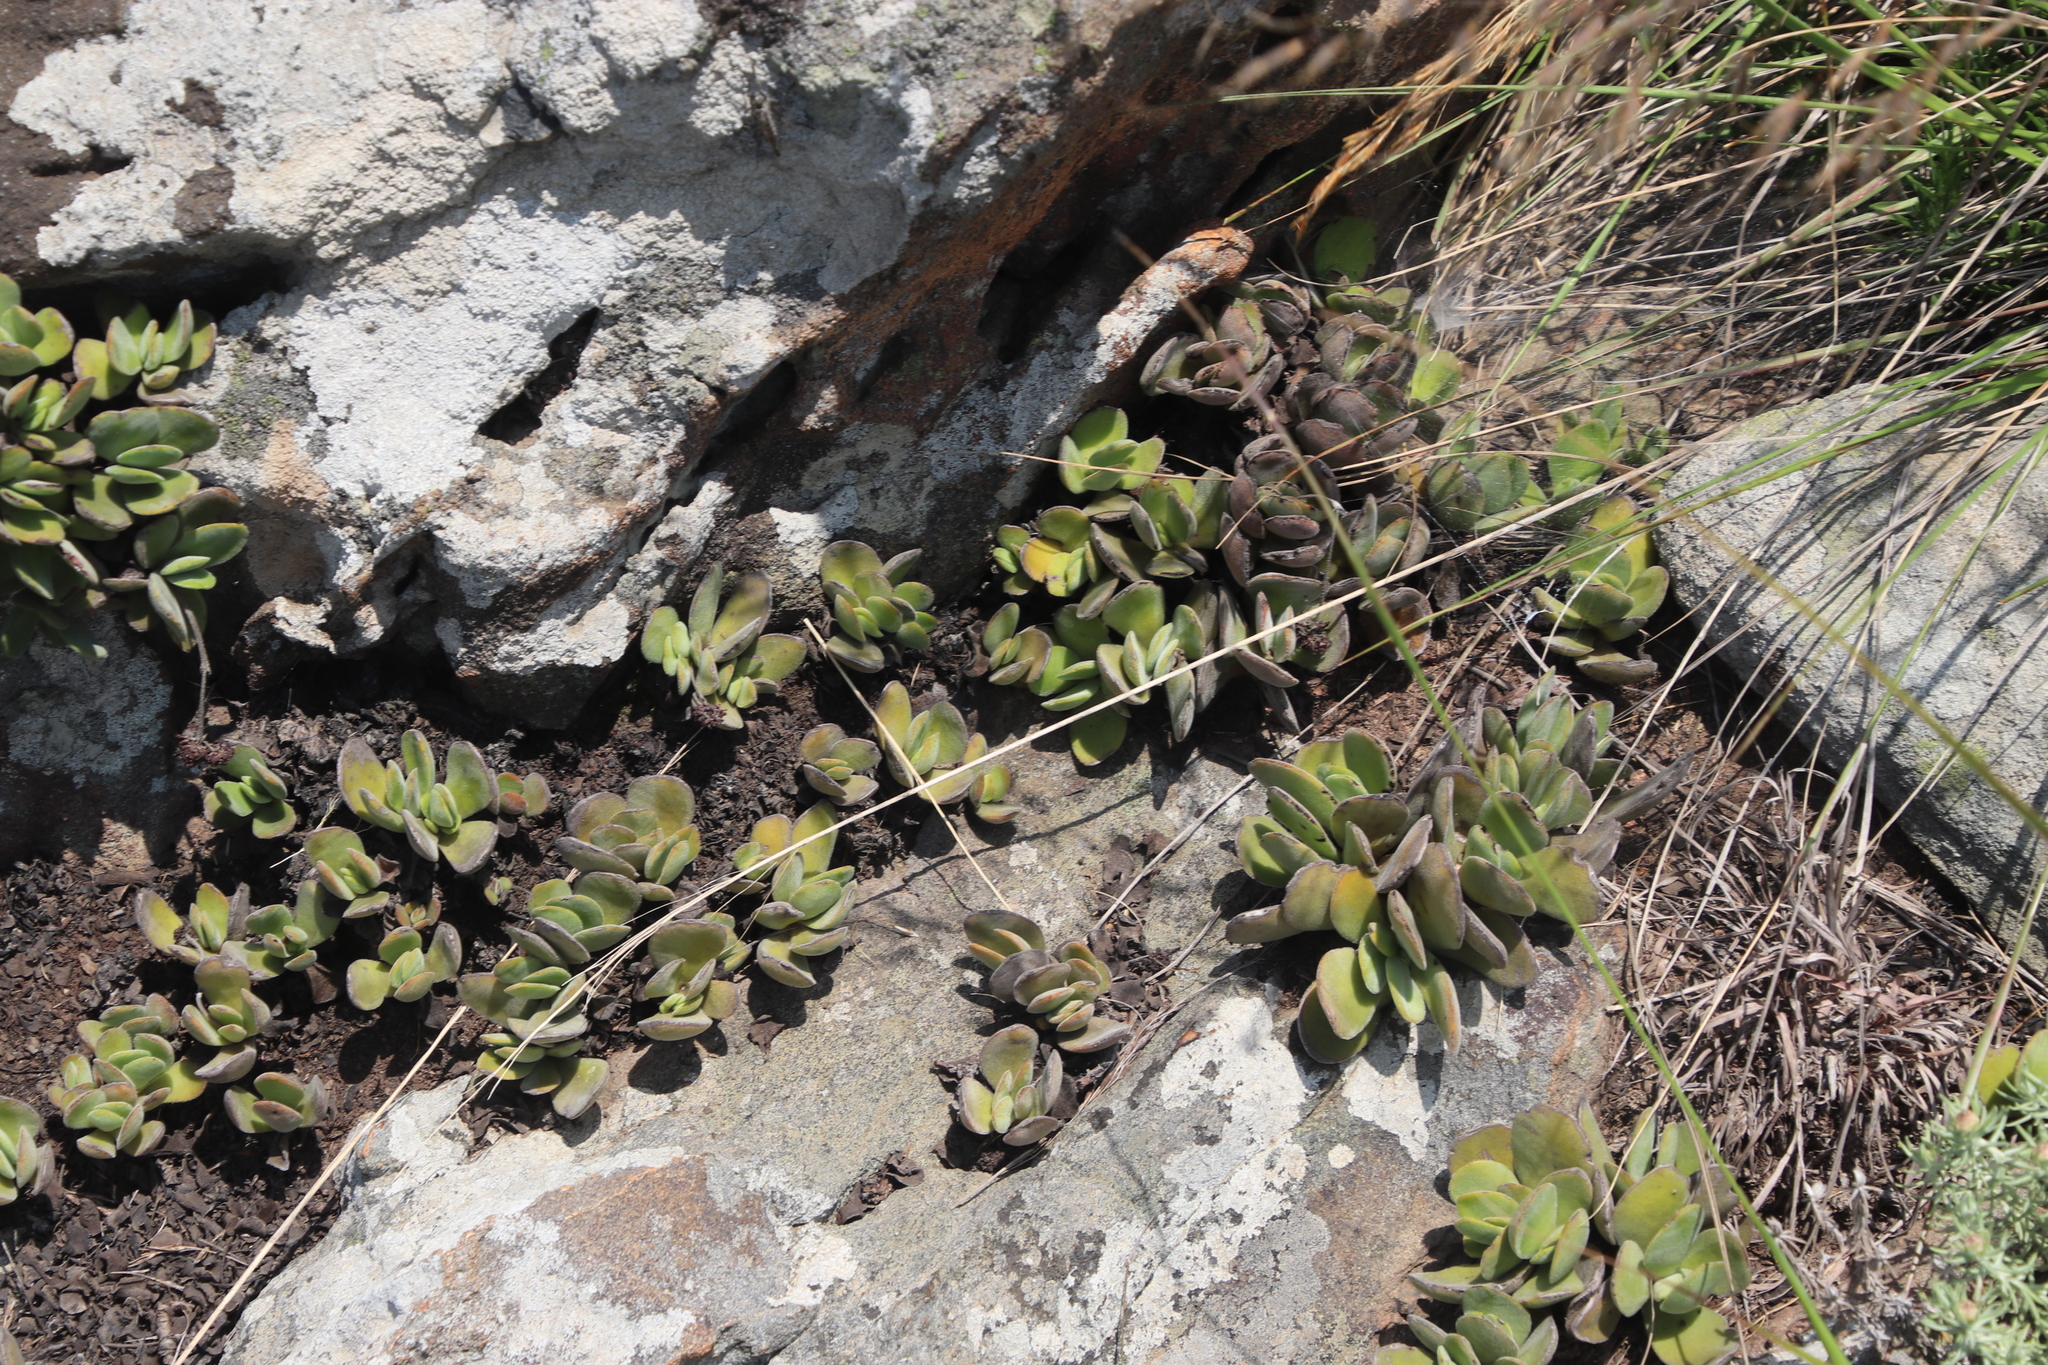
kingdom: Plantae
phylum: Tracheophyta
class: Magnoliopsida
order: Saxifragales
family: Crassulaceae
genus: Crassula
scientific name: Crassula globularioides
